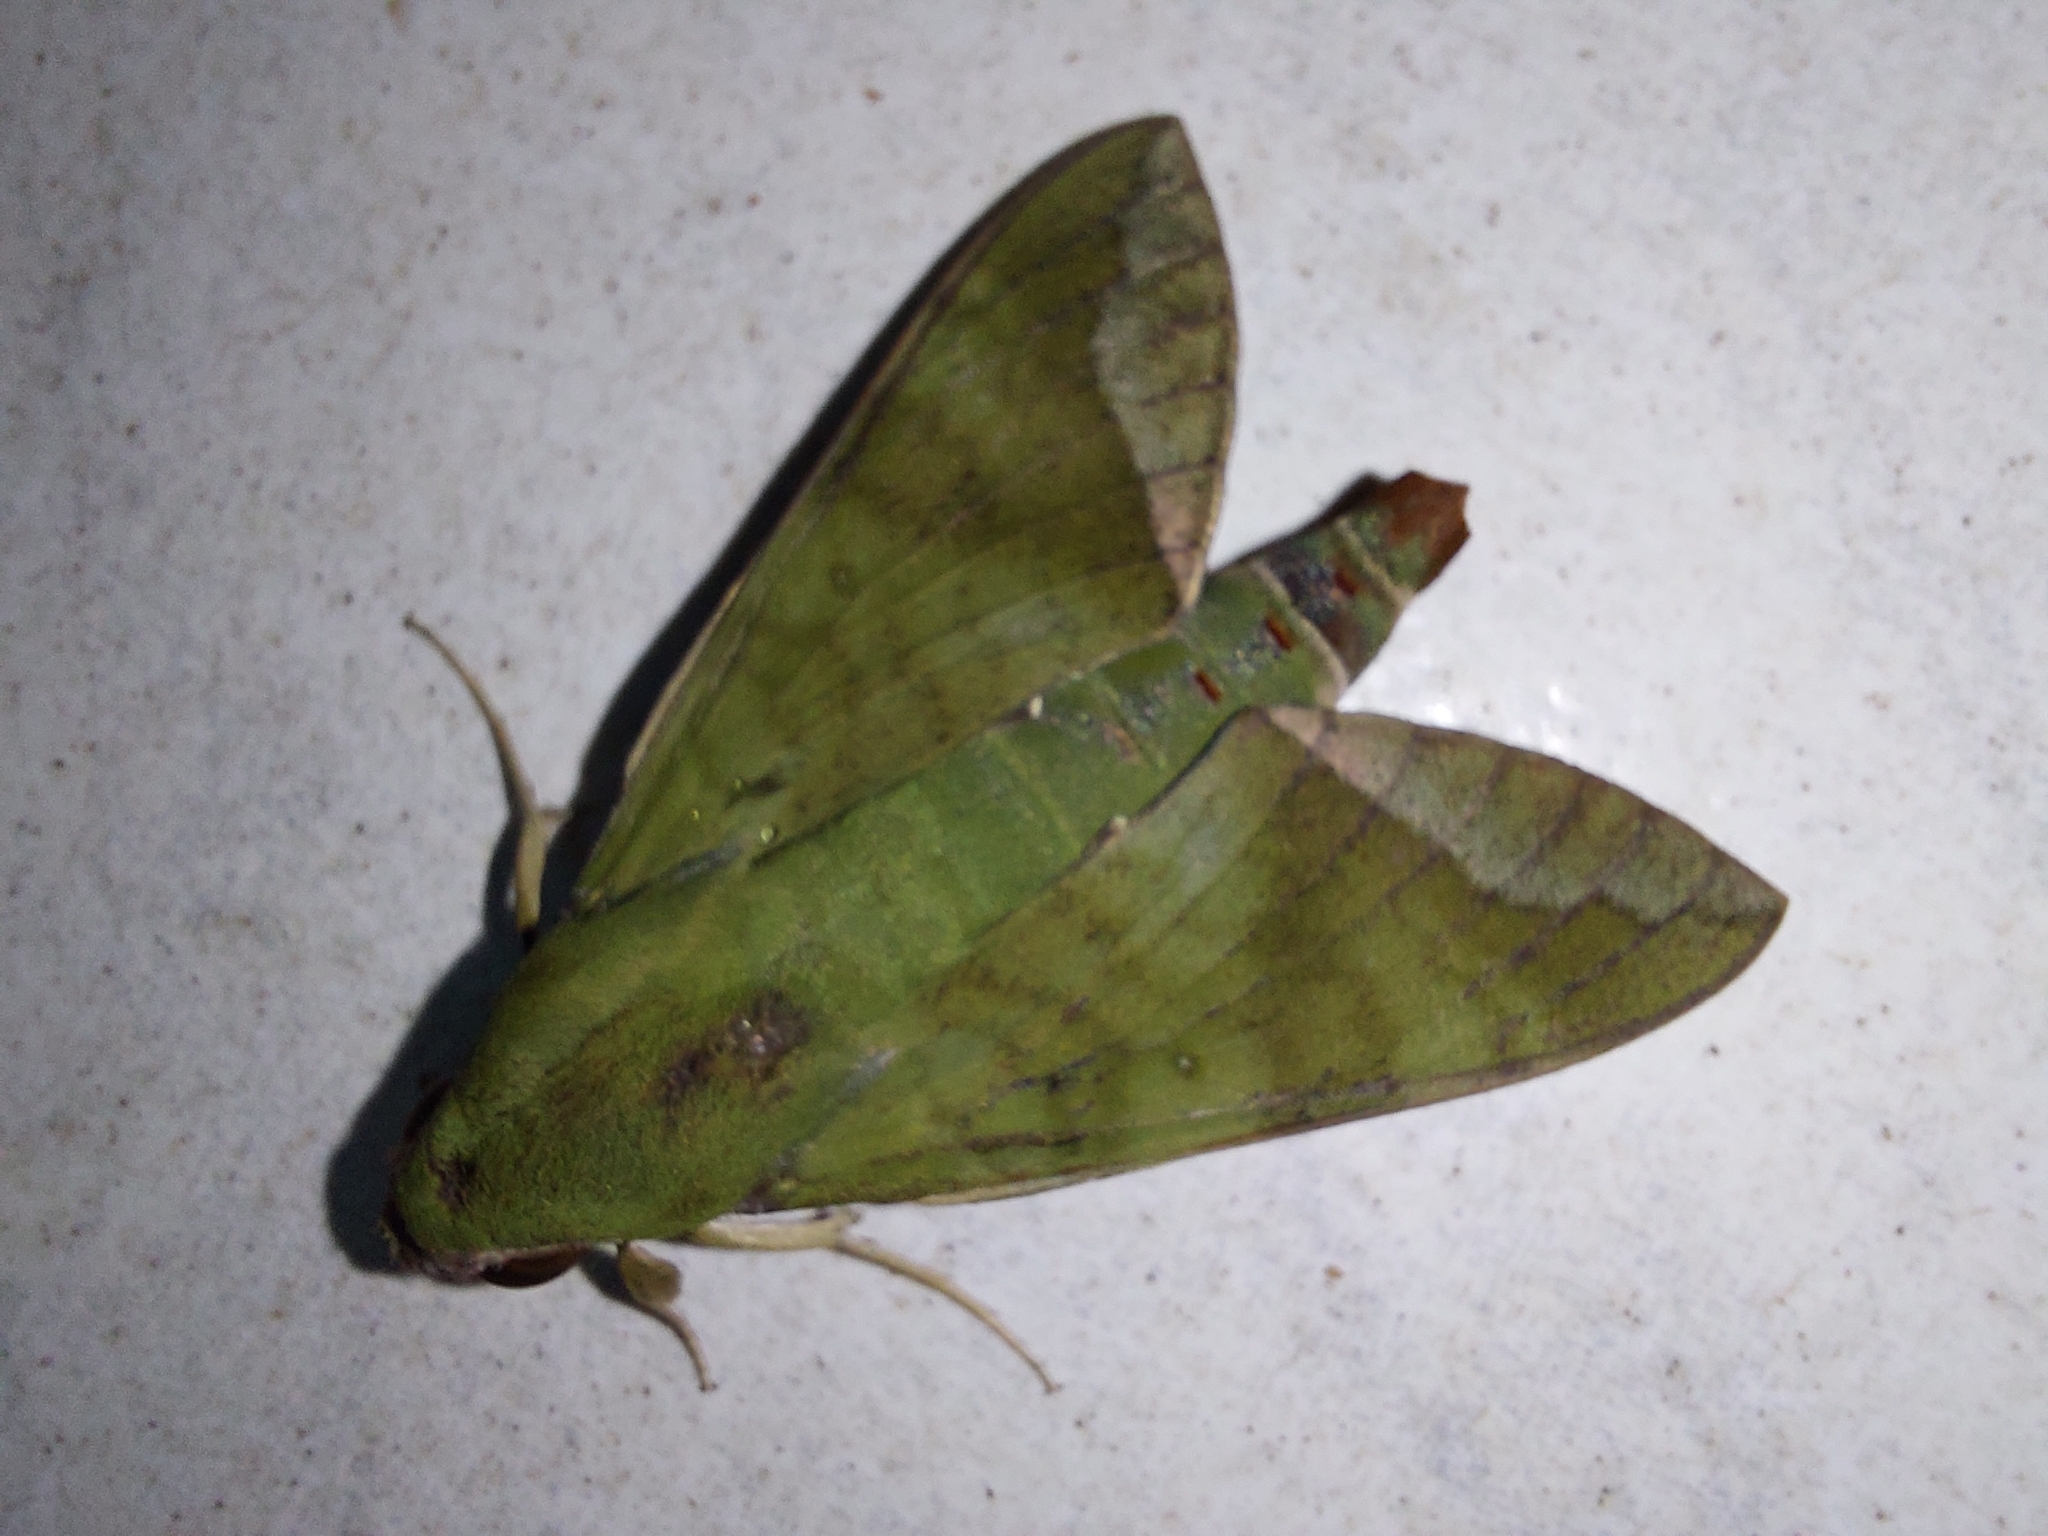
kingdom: Animalia
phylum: Arthropoda
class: Insecta
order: Lepidoptera
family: Sphingidae
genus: Nephele
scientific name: Nephele comma
